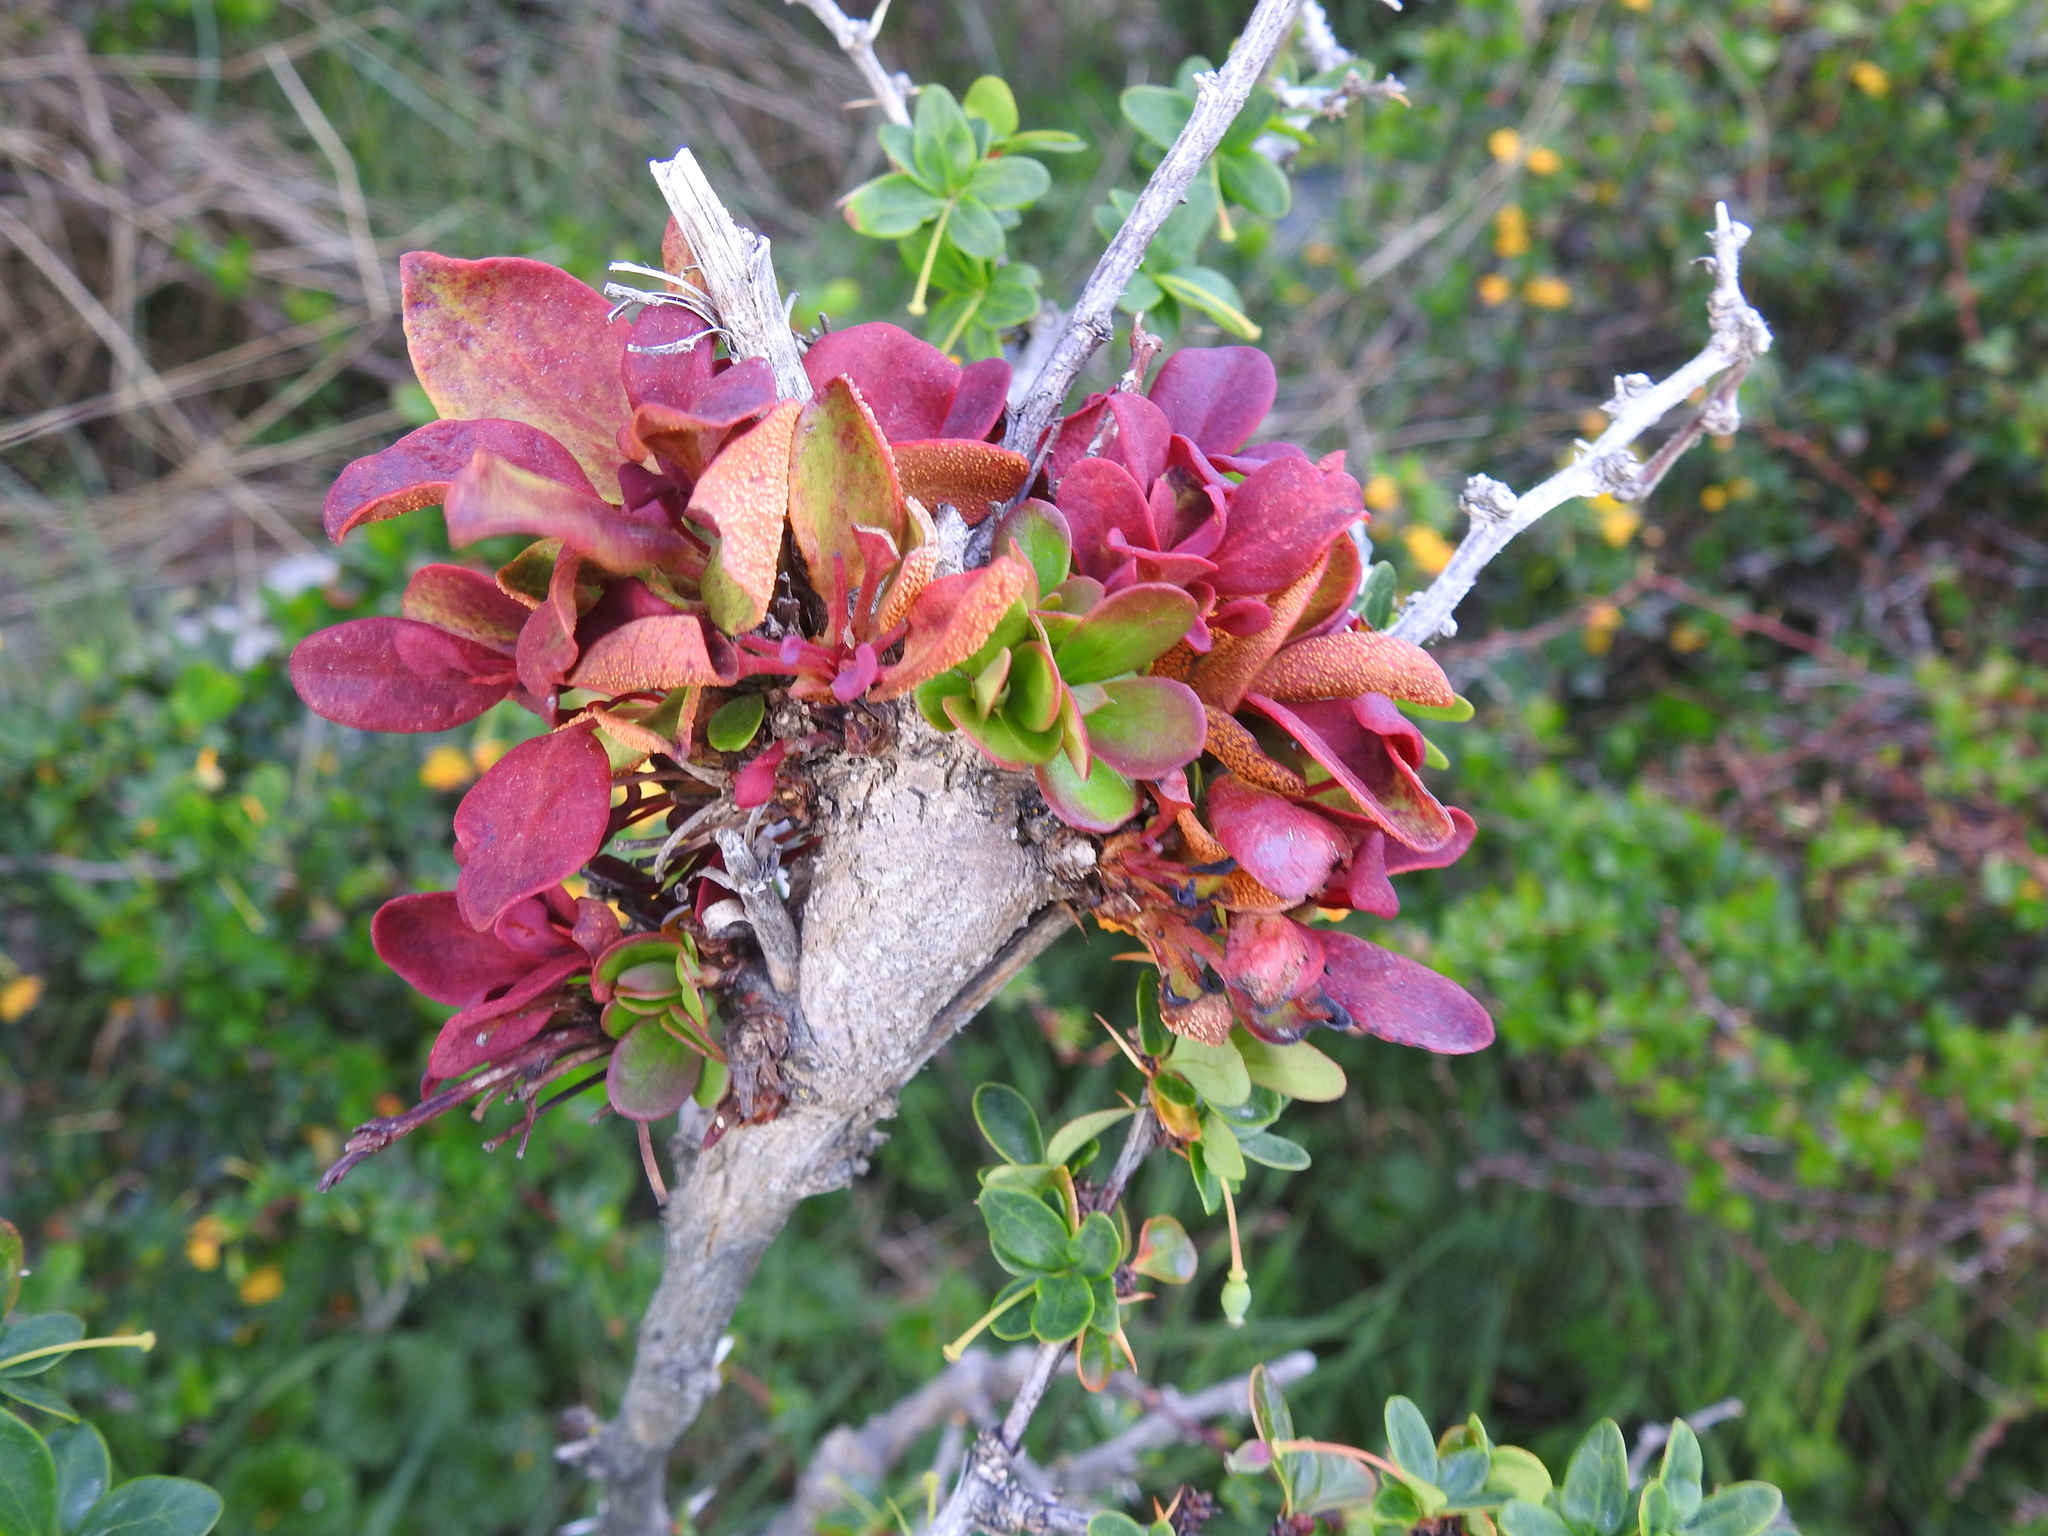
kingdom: Fungi
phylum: Basidiomycota
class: Pucciniomycetes
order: Pucciniales
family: Pucciniaceae
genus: Puccinia
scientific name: Puccinia magellanica
